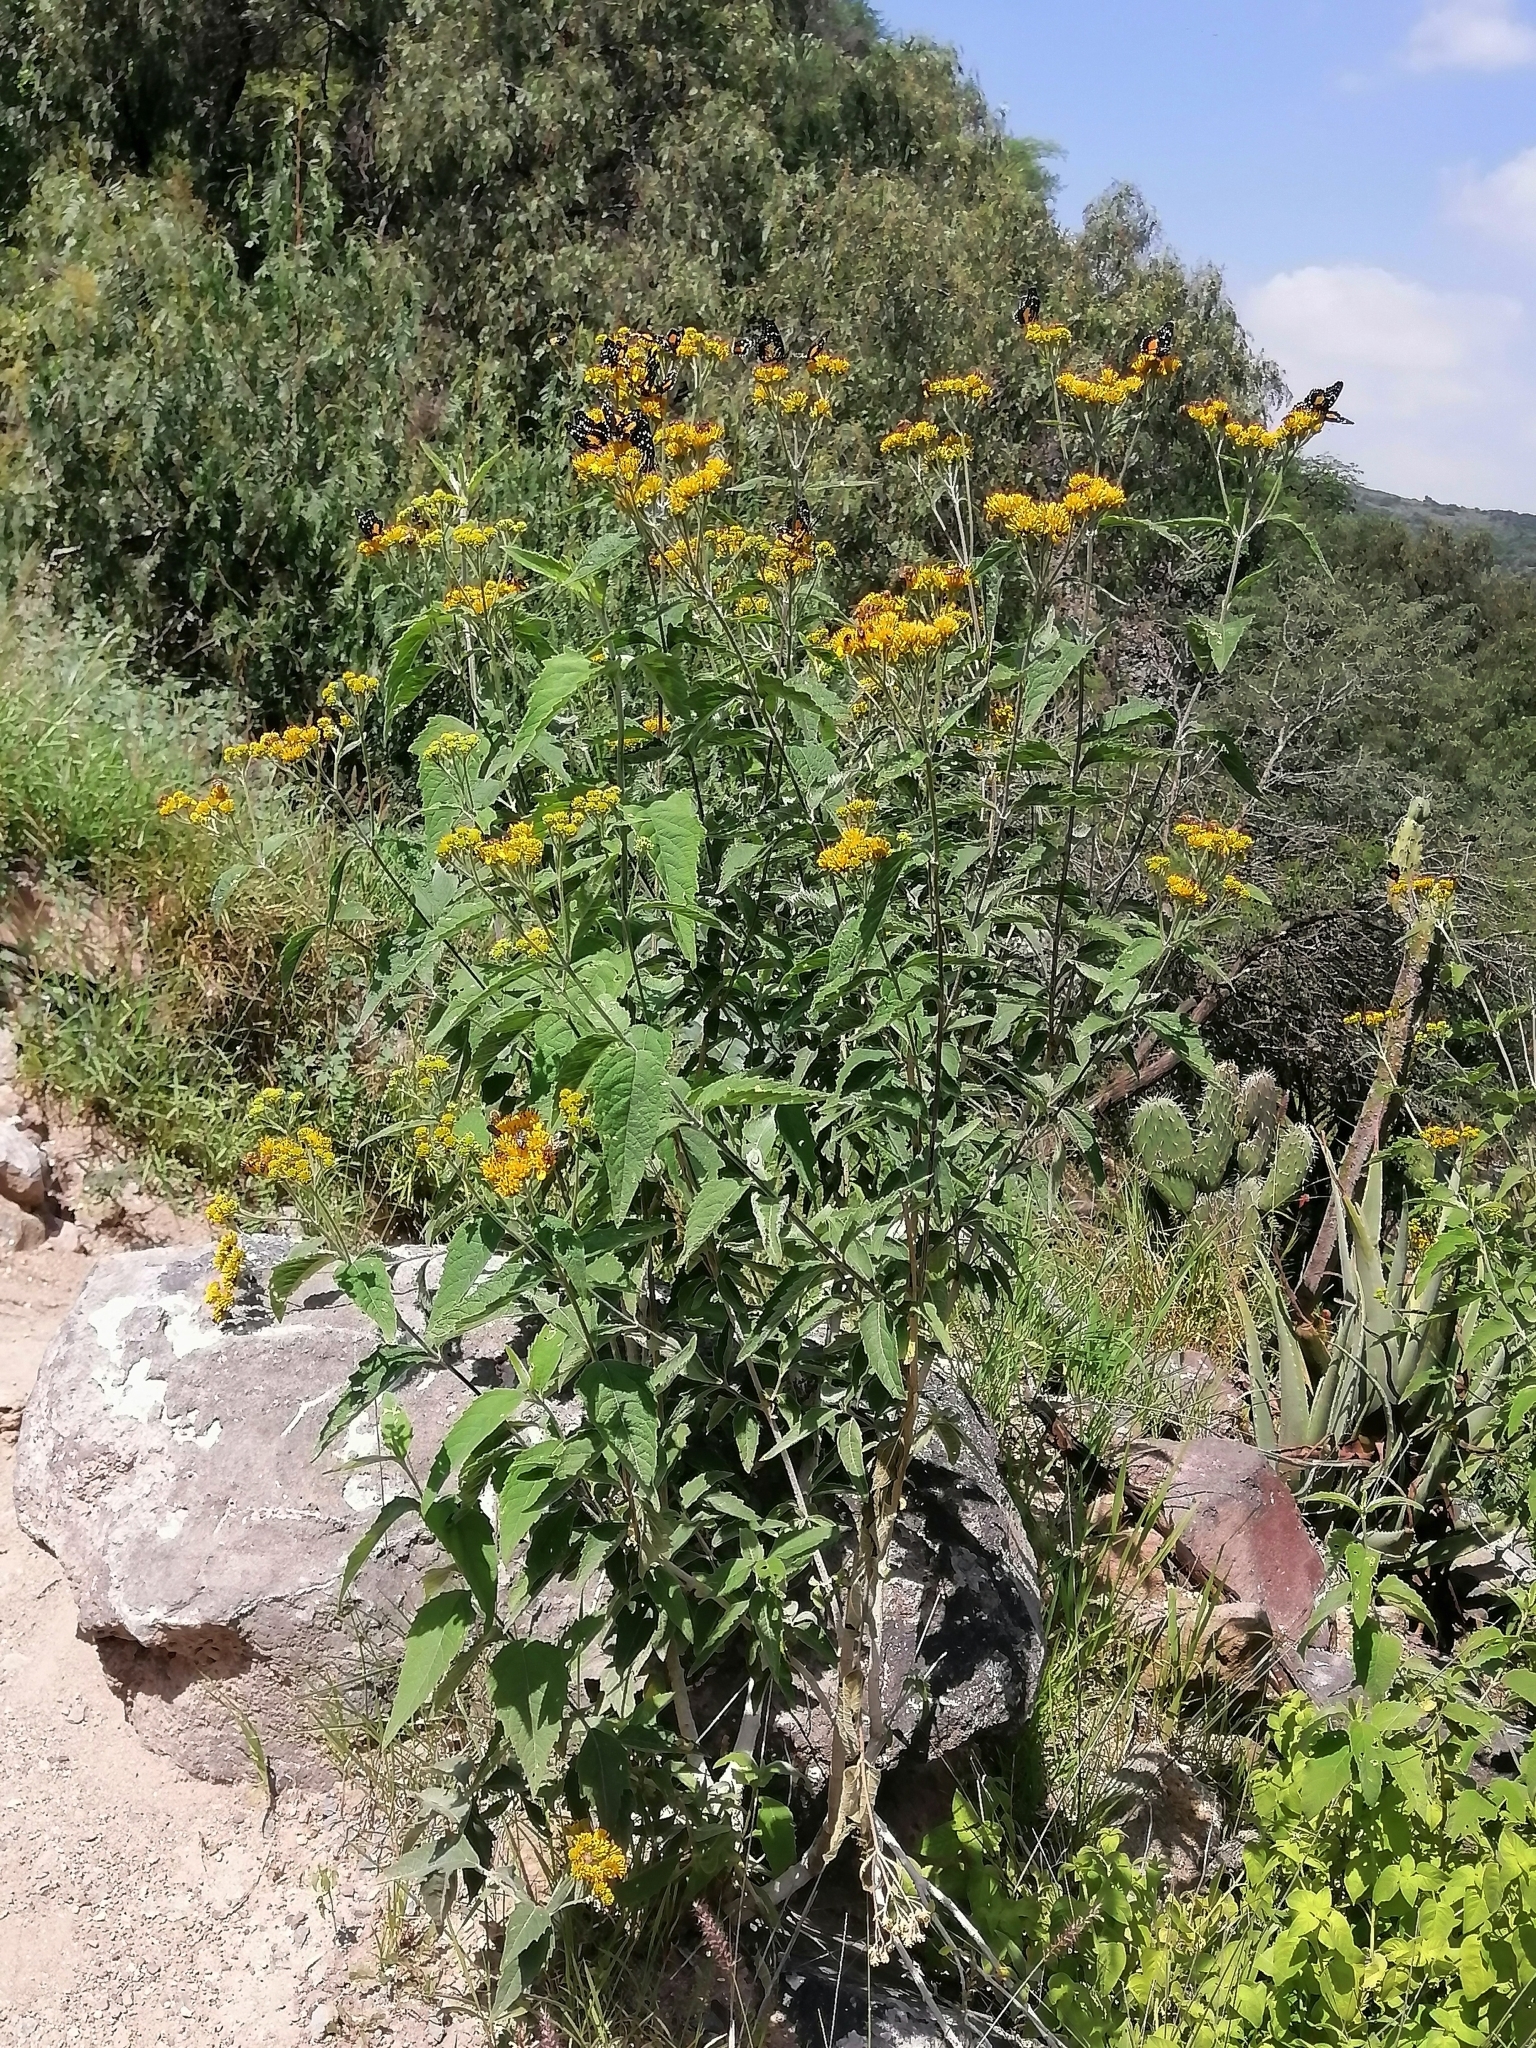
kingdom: Plantae
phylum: Tracheophyta
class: Magnoliopsida
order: Asterales
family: Asteraceae
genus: Verbesina
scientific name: Verbesina serrata
